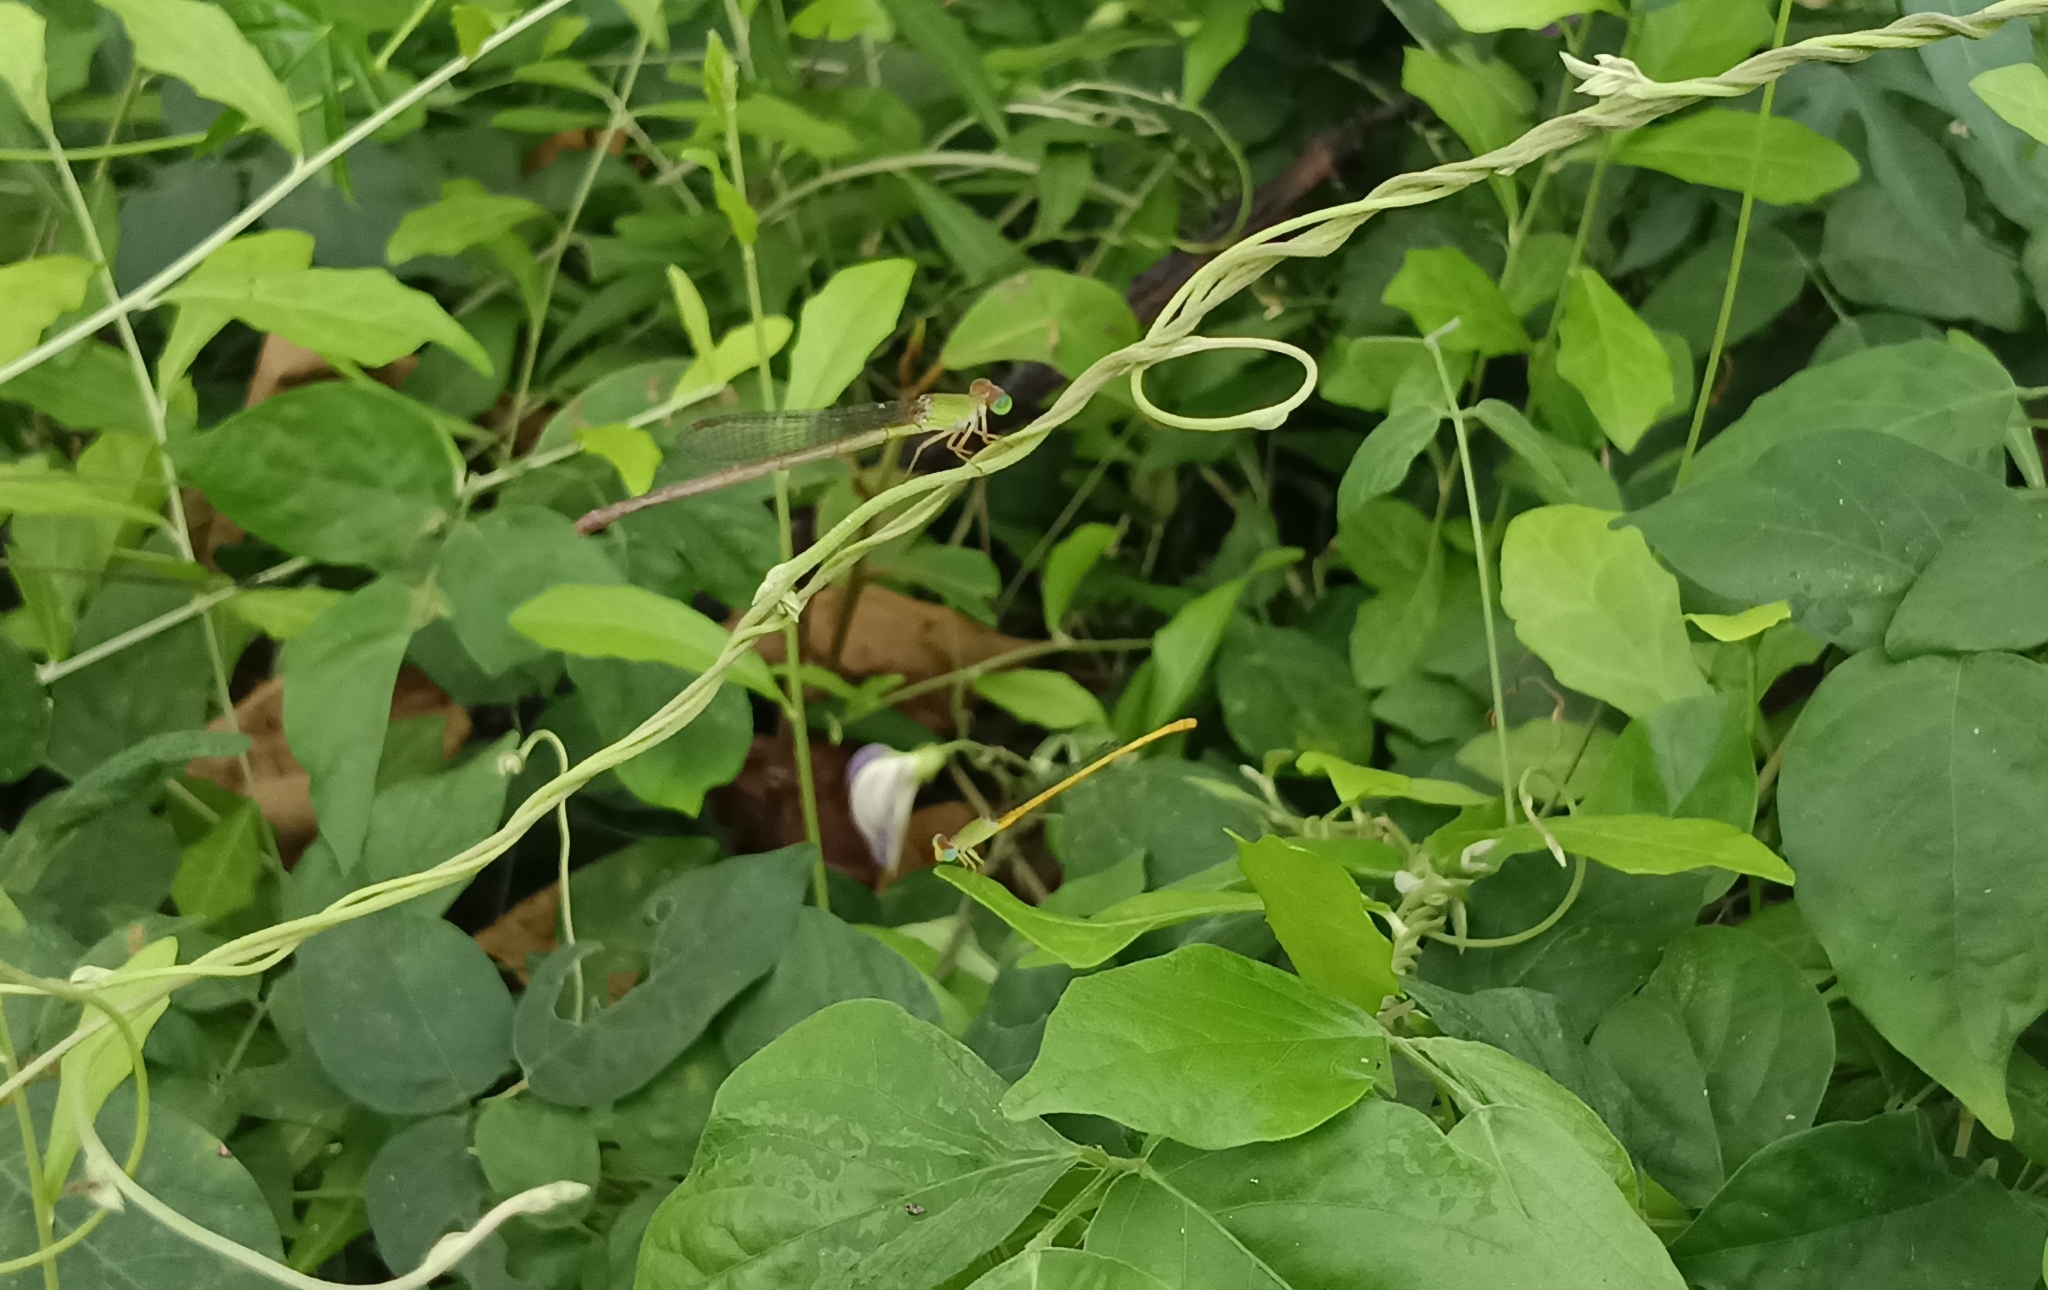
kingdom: Animalia
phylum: Arthropoda
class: Insecta
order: Odonata
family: Coenagrionidae
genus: Ceriagrion
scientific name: Ceriagrion coromandelianum
